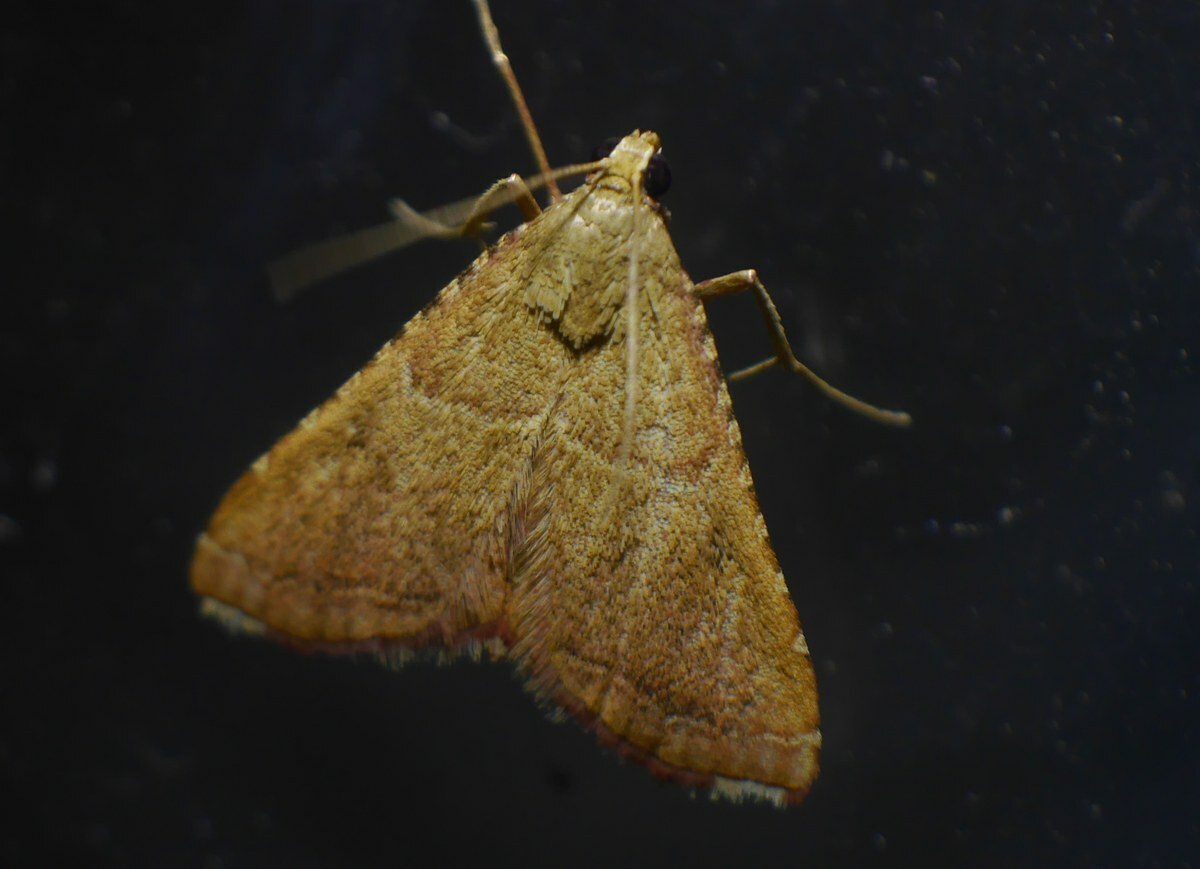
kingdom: Animalia
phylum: Arthropoda
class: Insecta
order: Lepidoptera
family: Pyralidae
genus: Endotricha
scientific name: Endotricha flammealis
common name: Rosy tabby
